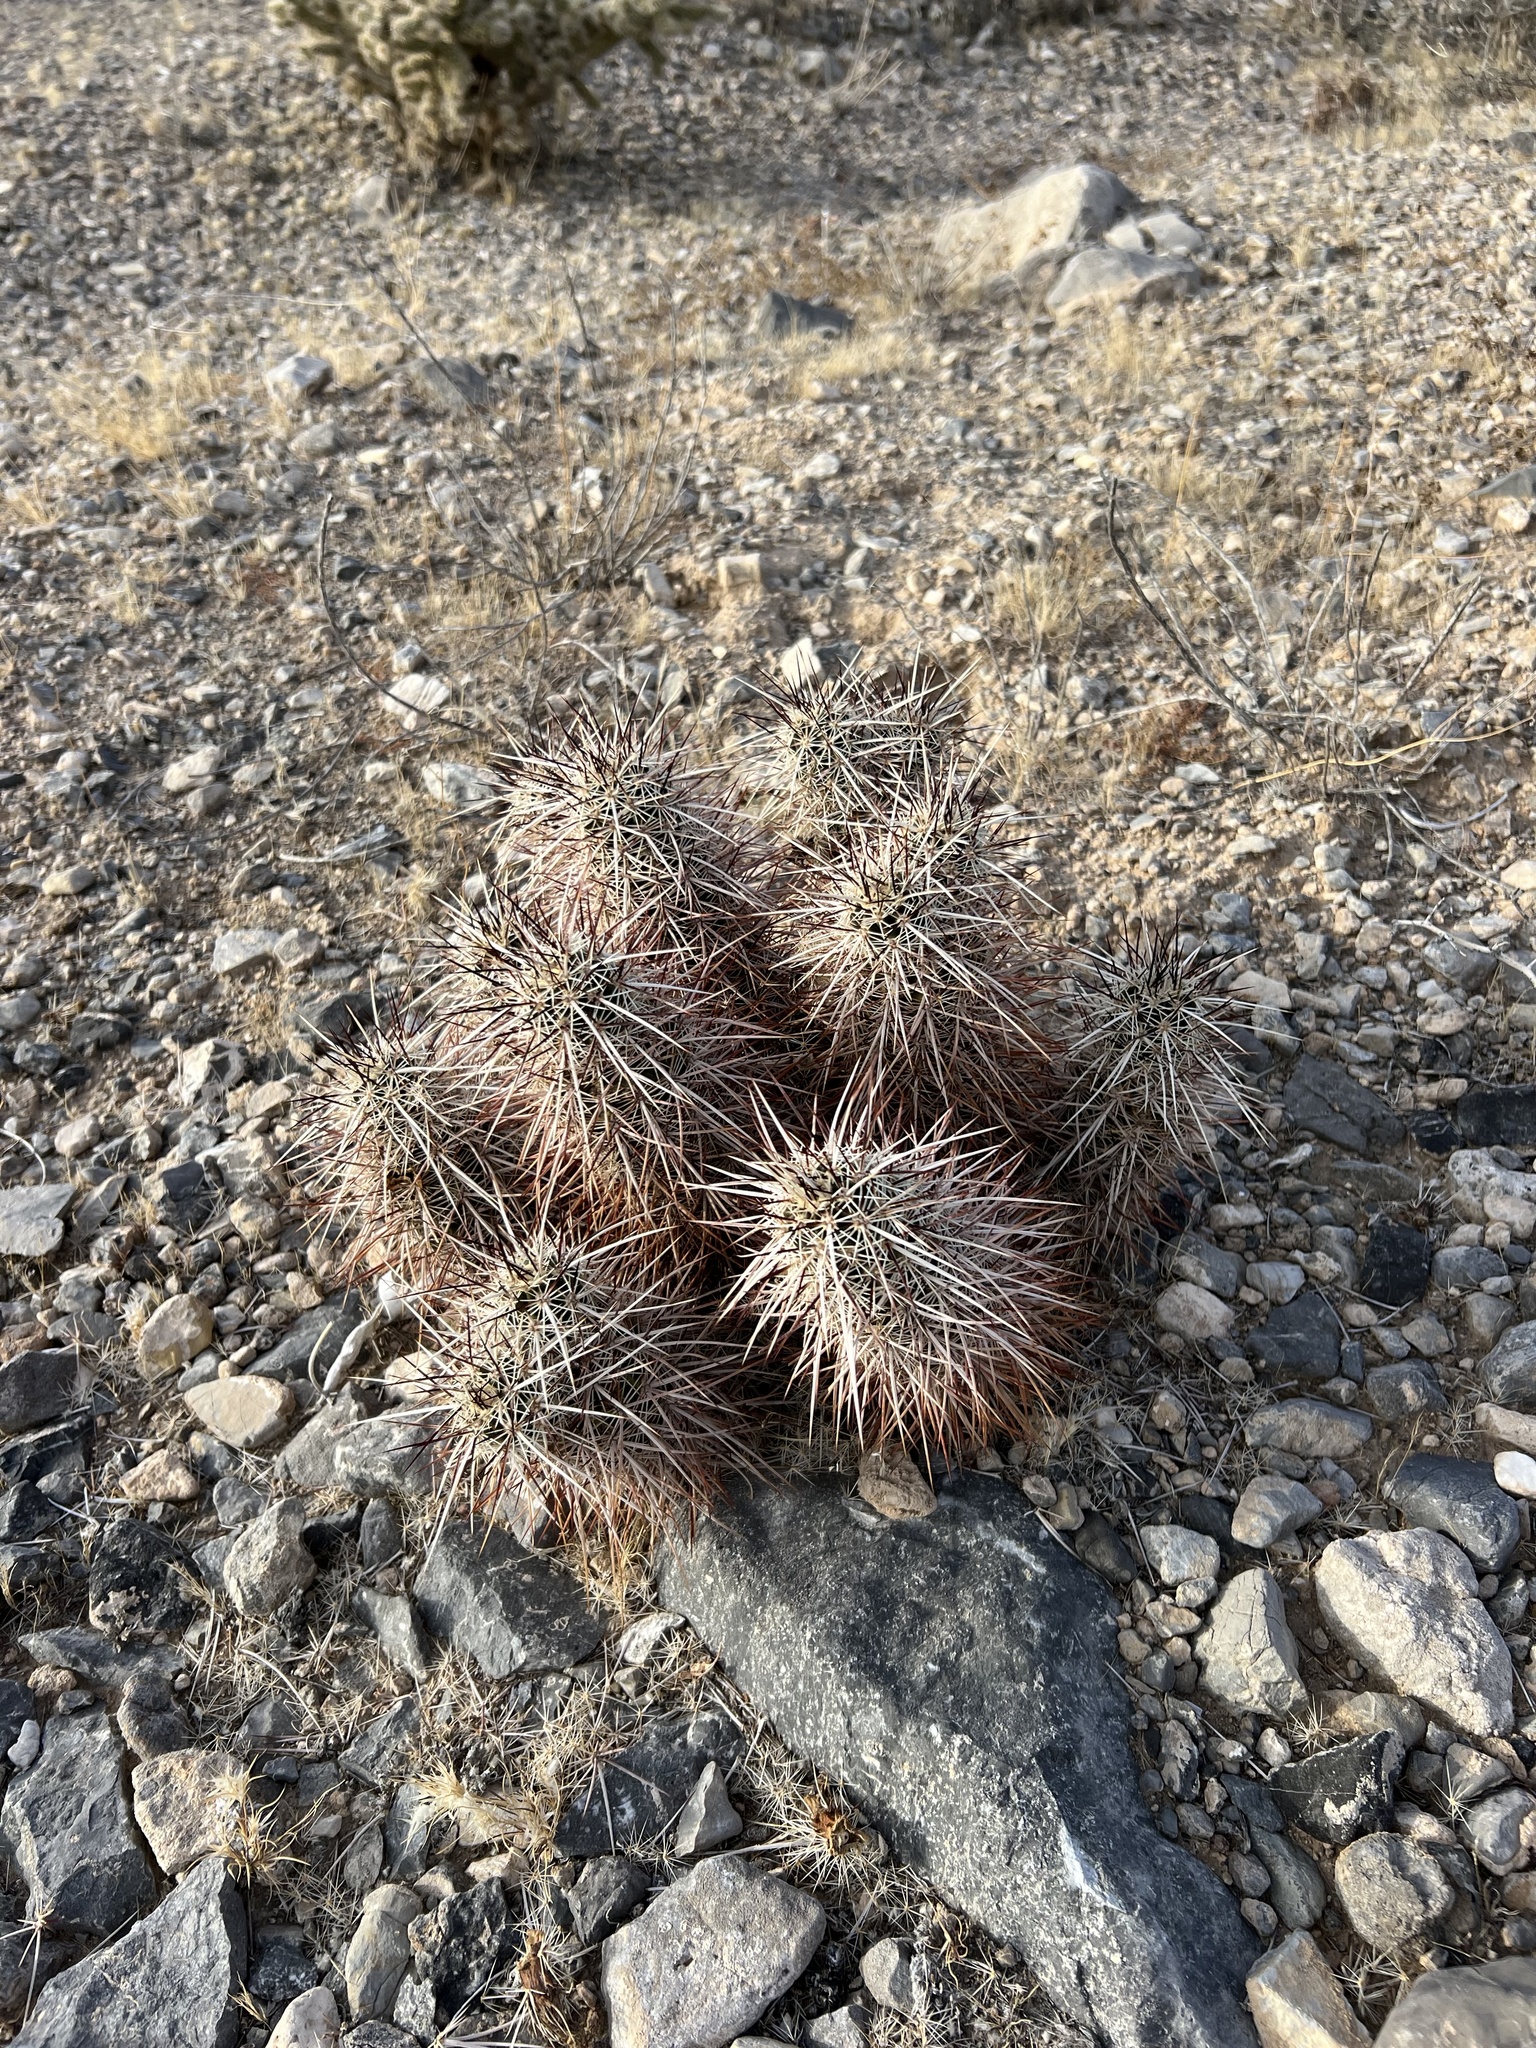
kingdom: Plantae
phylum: Tracheophyta
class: Magnoliopsida
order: Caryophyllales
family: Cactaceae
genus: Echinocereus
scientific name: Echinocereus engelmannii
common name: Engelmann's hedgehog cactus
